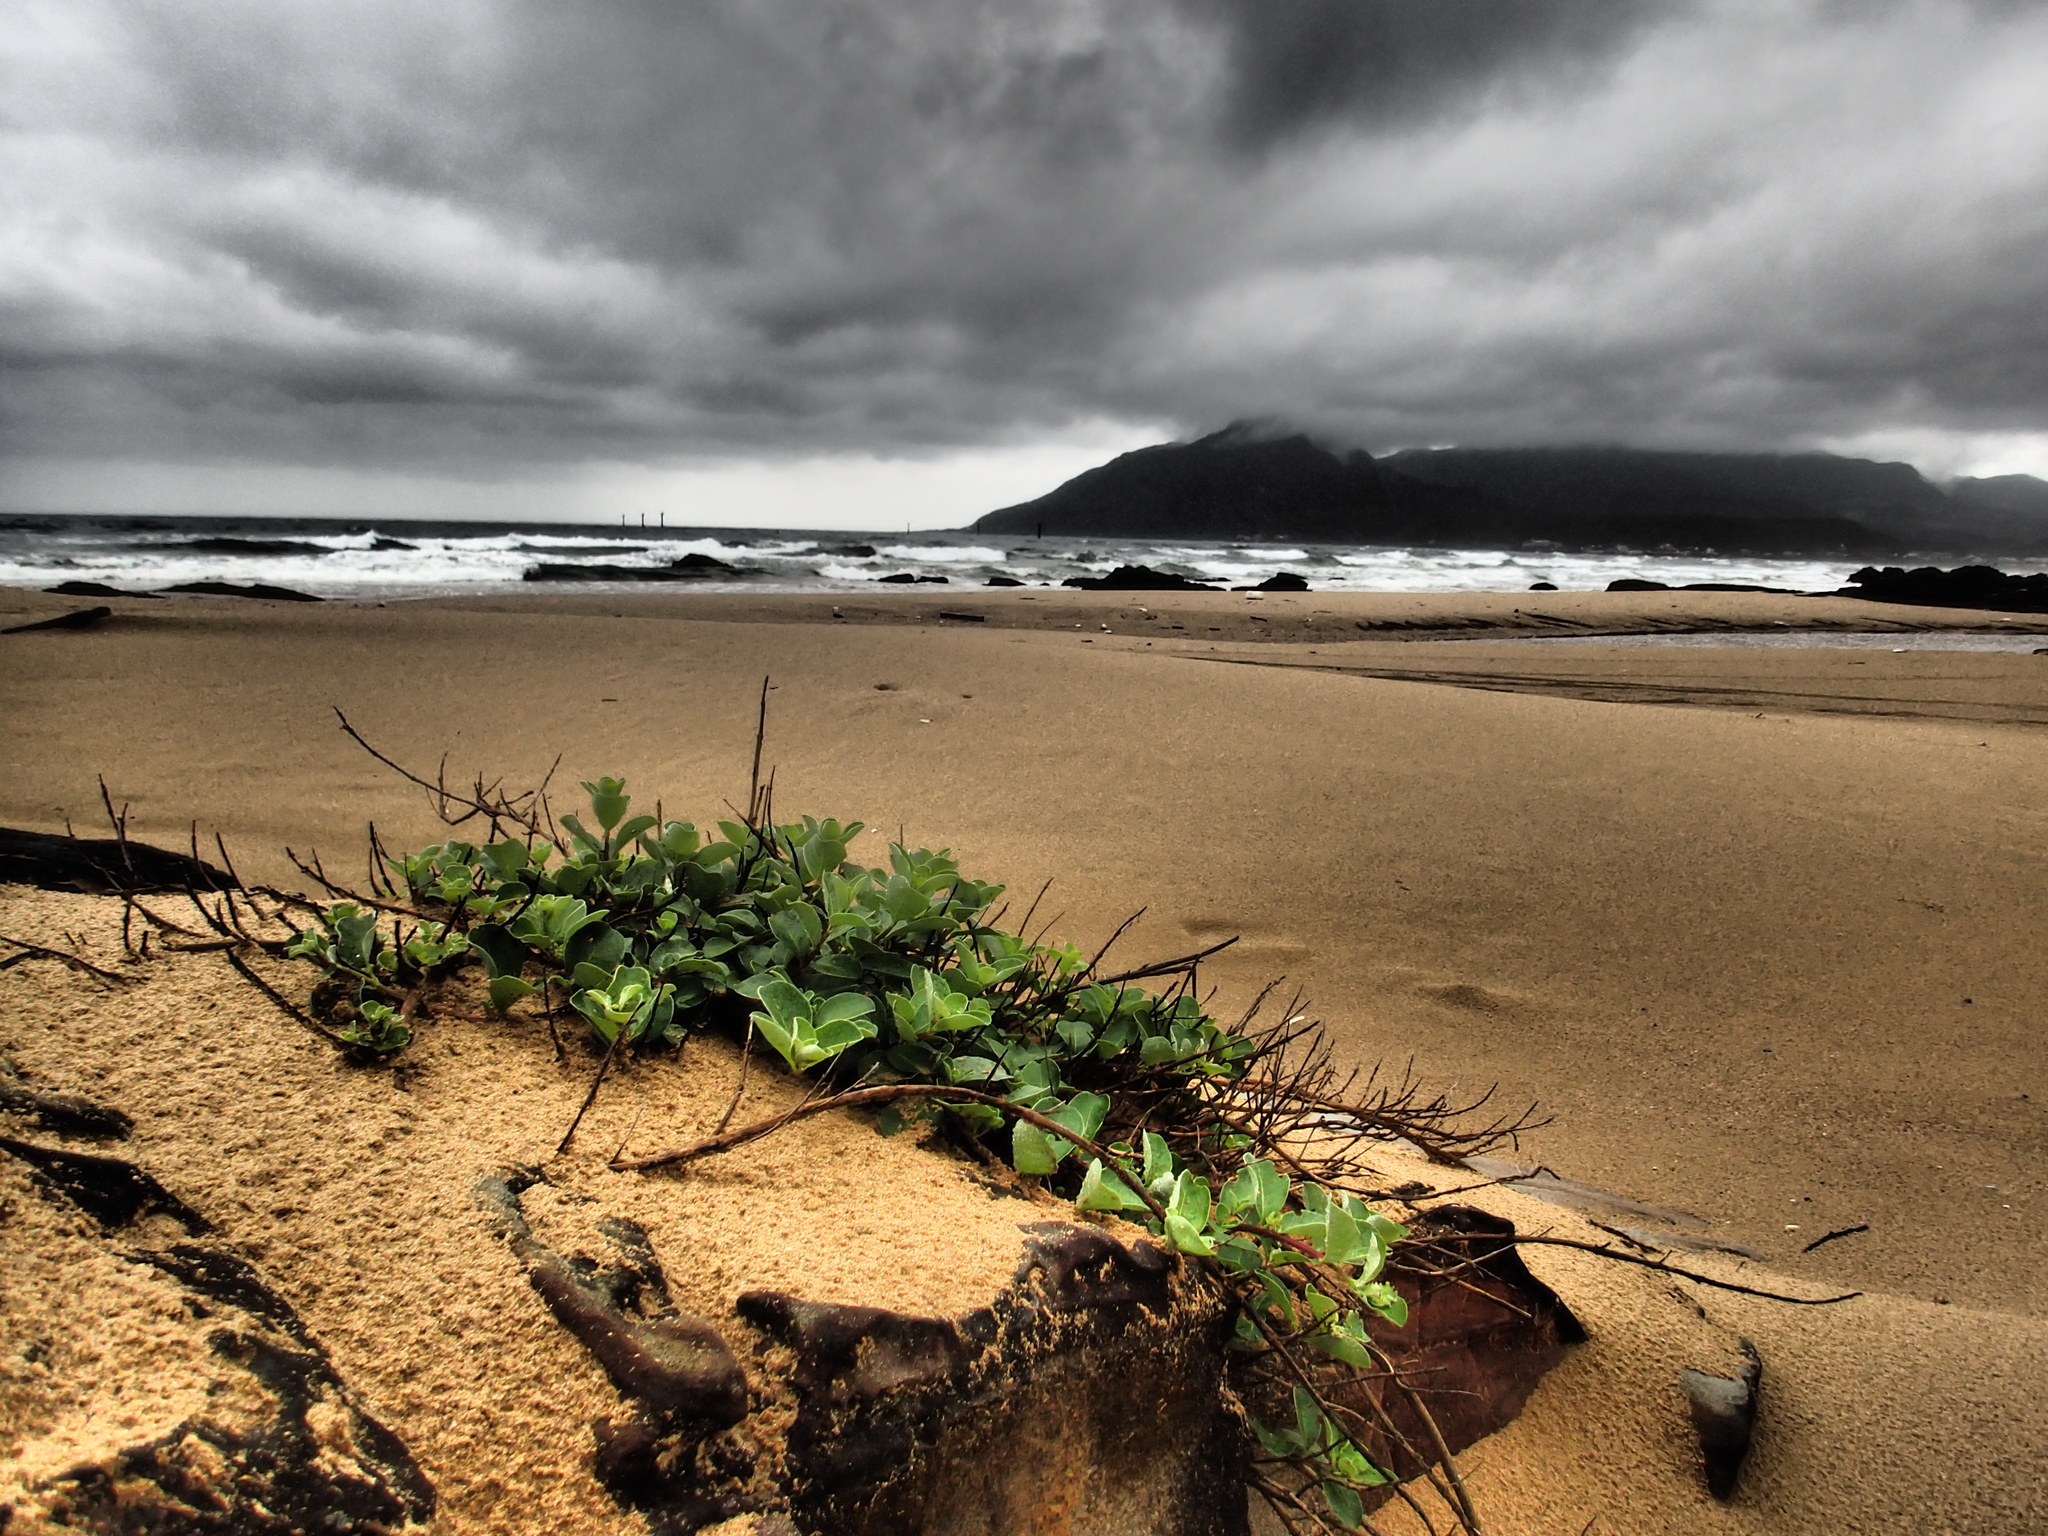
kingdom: Plantae
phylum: Tracheophyta
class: Magnoliopsida
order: Lamiales
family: Lamiaceae
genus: Vitex
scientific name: Vitex rotundifolia
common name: Beach vitex
